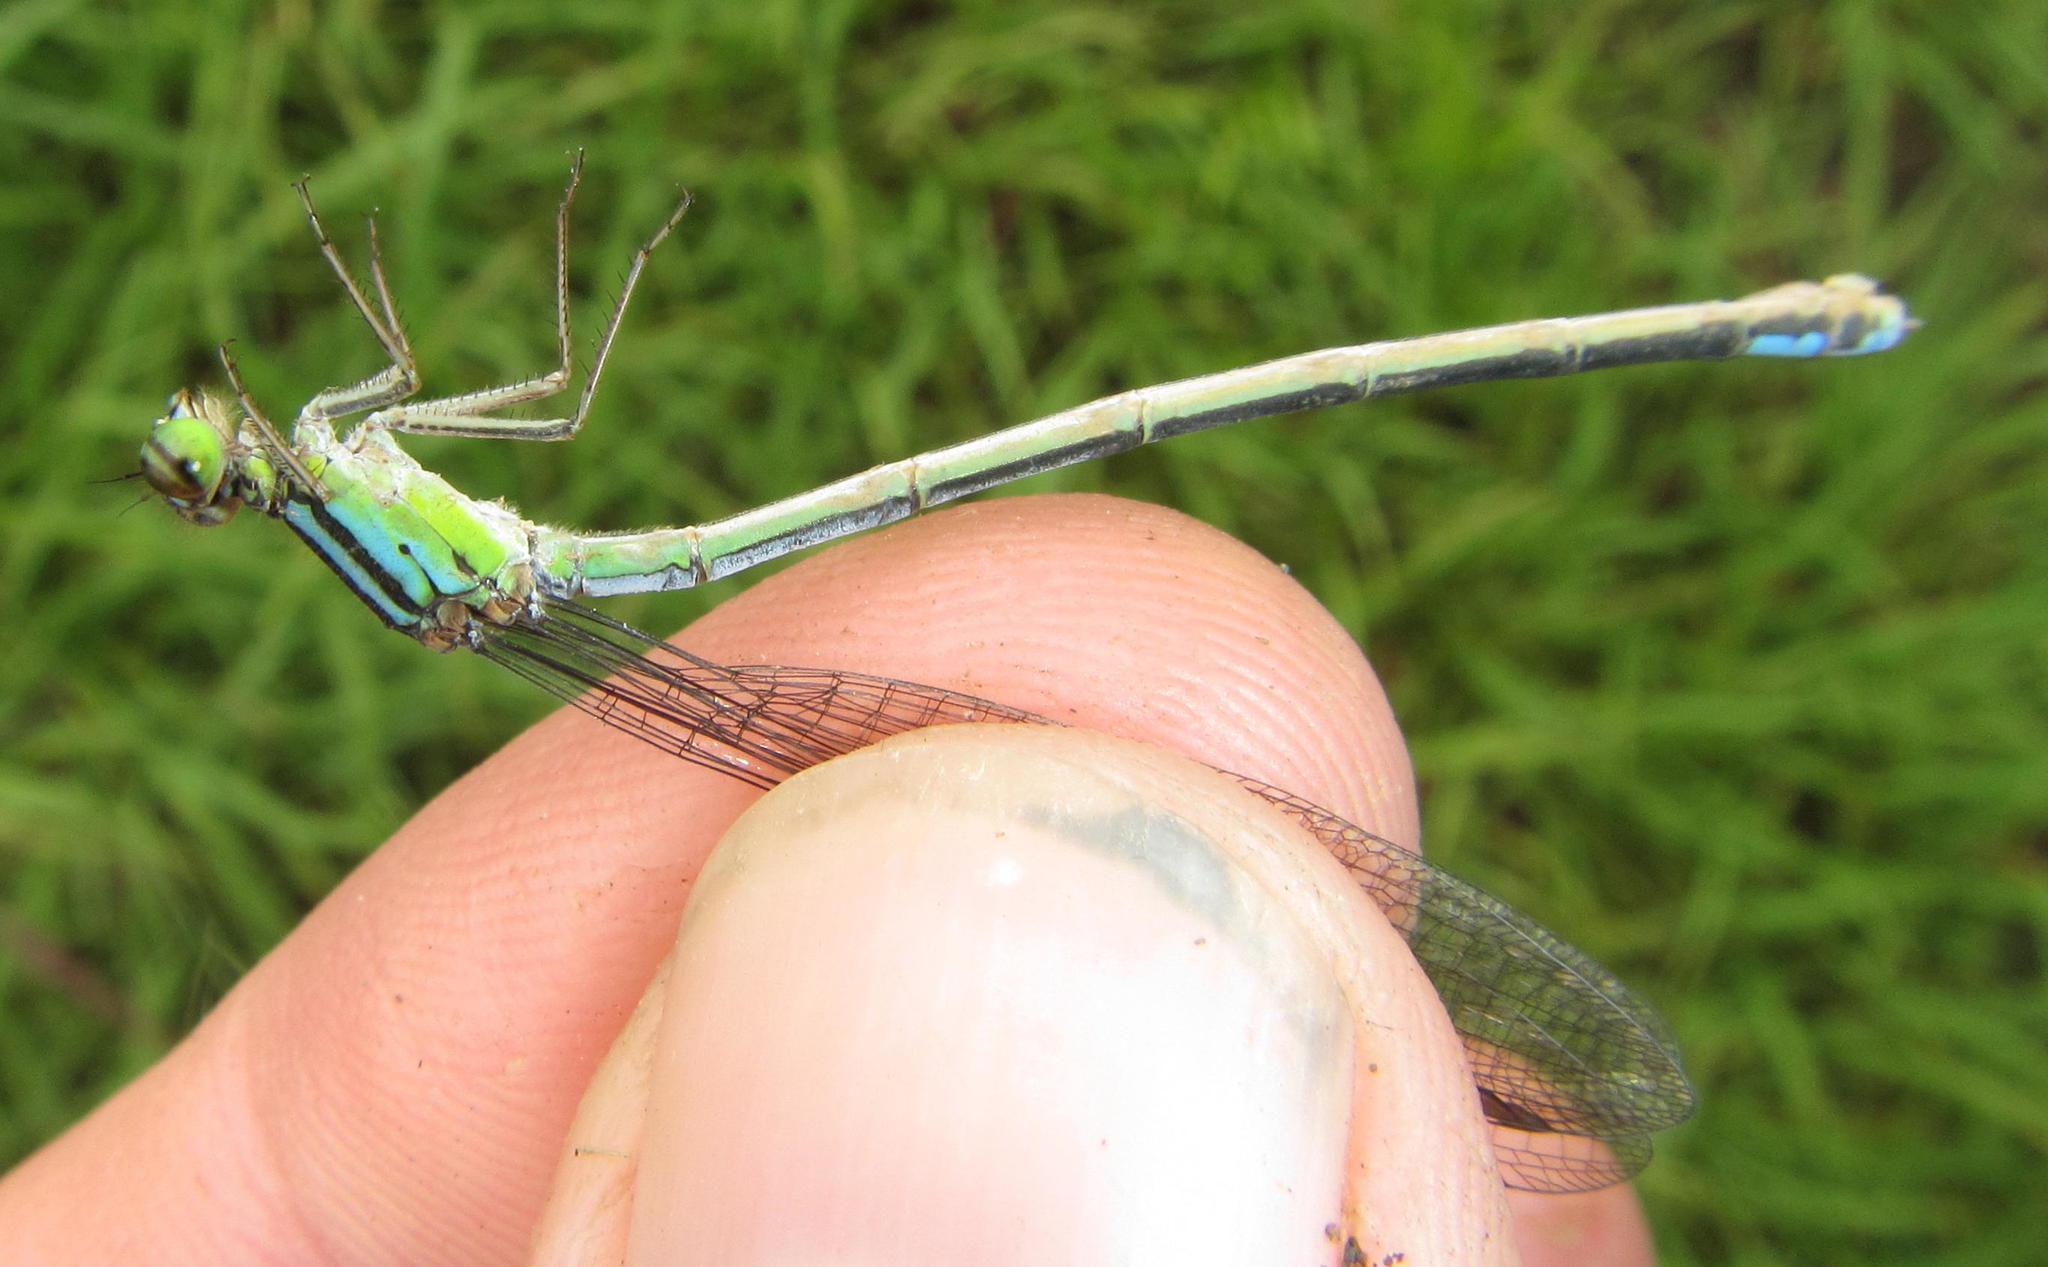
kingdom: Animalia
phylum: Arthropoda
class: Insecta
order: Odonata
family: Coenagrionidae
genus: Pseudagrion
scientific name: Pseudagrion spernatum
